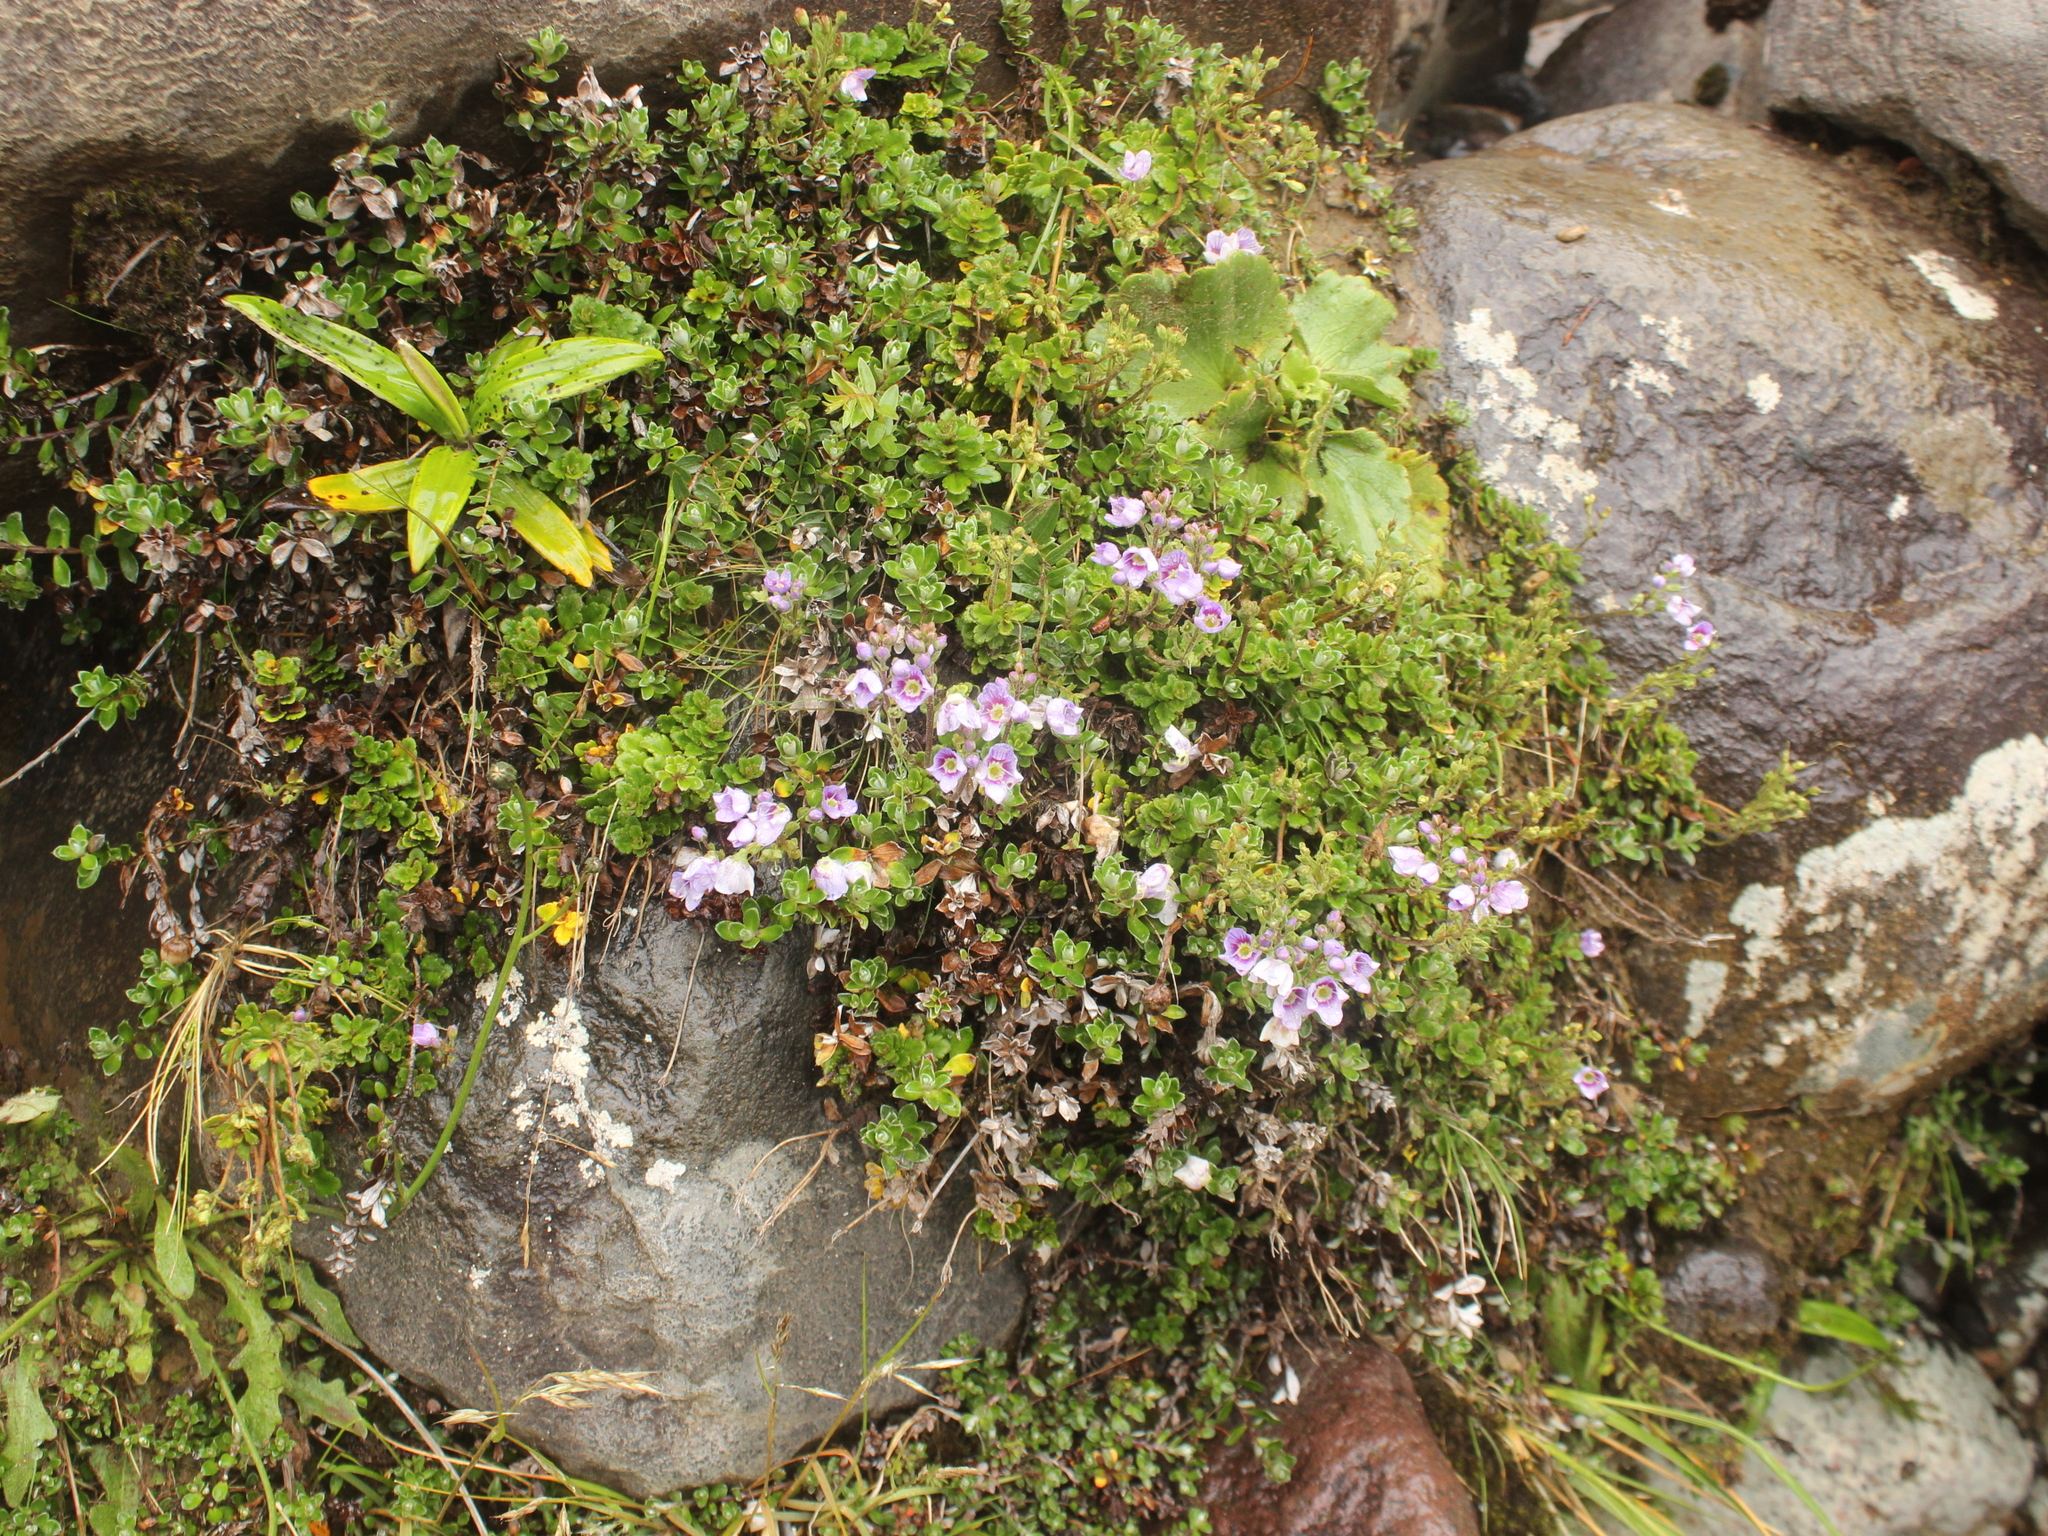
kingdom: Plantae
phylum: Tracheophyta
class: Magnoliopsida
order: Lamiales
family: Plantaginaceae
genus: Veronica
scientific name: Veronica hookeriana
